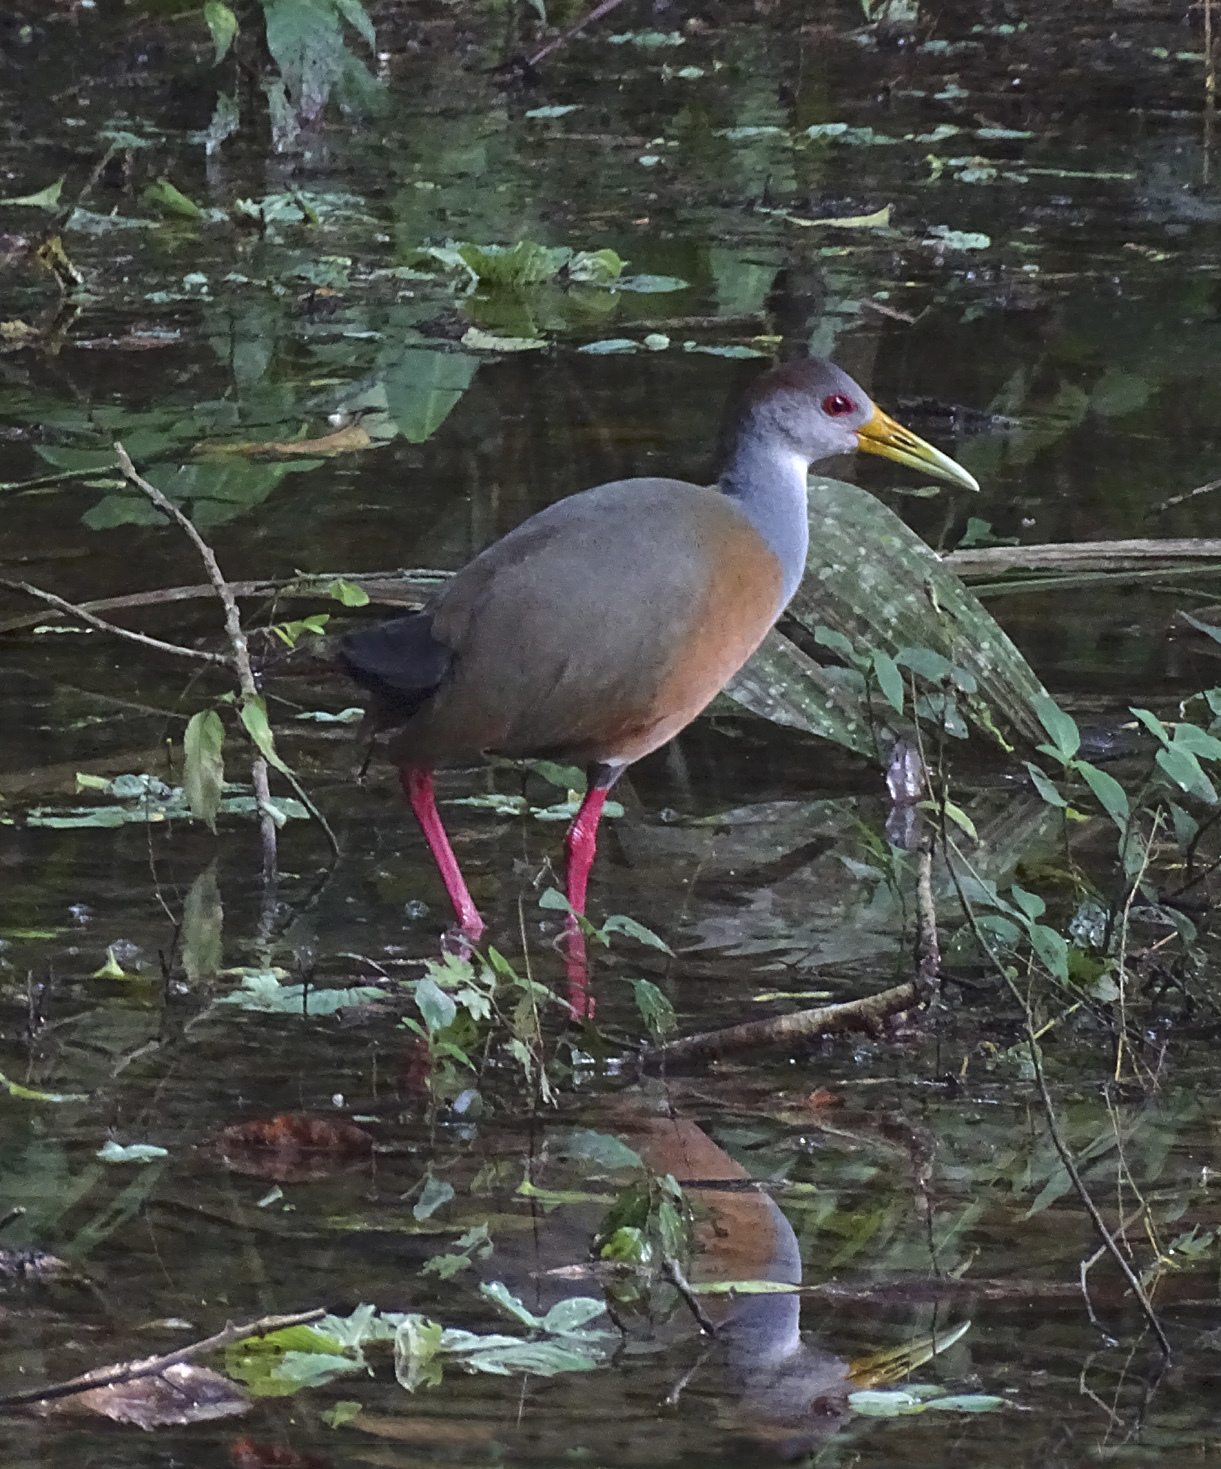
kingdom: Animalia
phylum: Chordata
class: Aves
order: Gruiformes
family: Rallidae
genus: Aramides
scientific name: Aramides albiventris
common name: Russet-naped wood-rail
